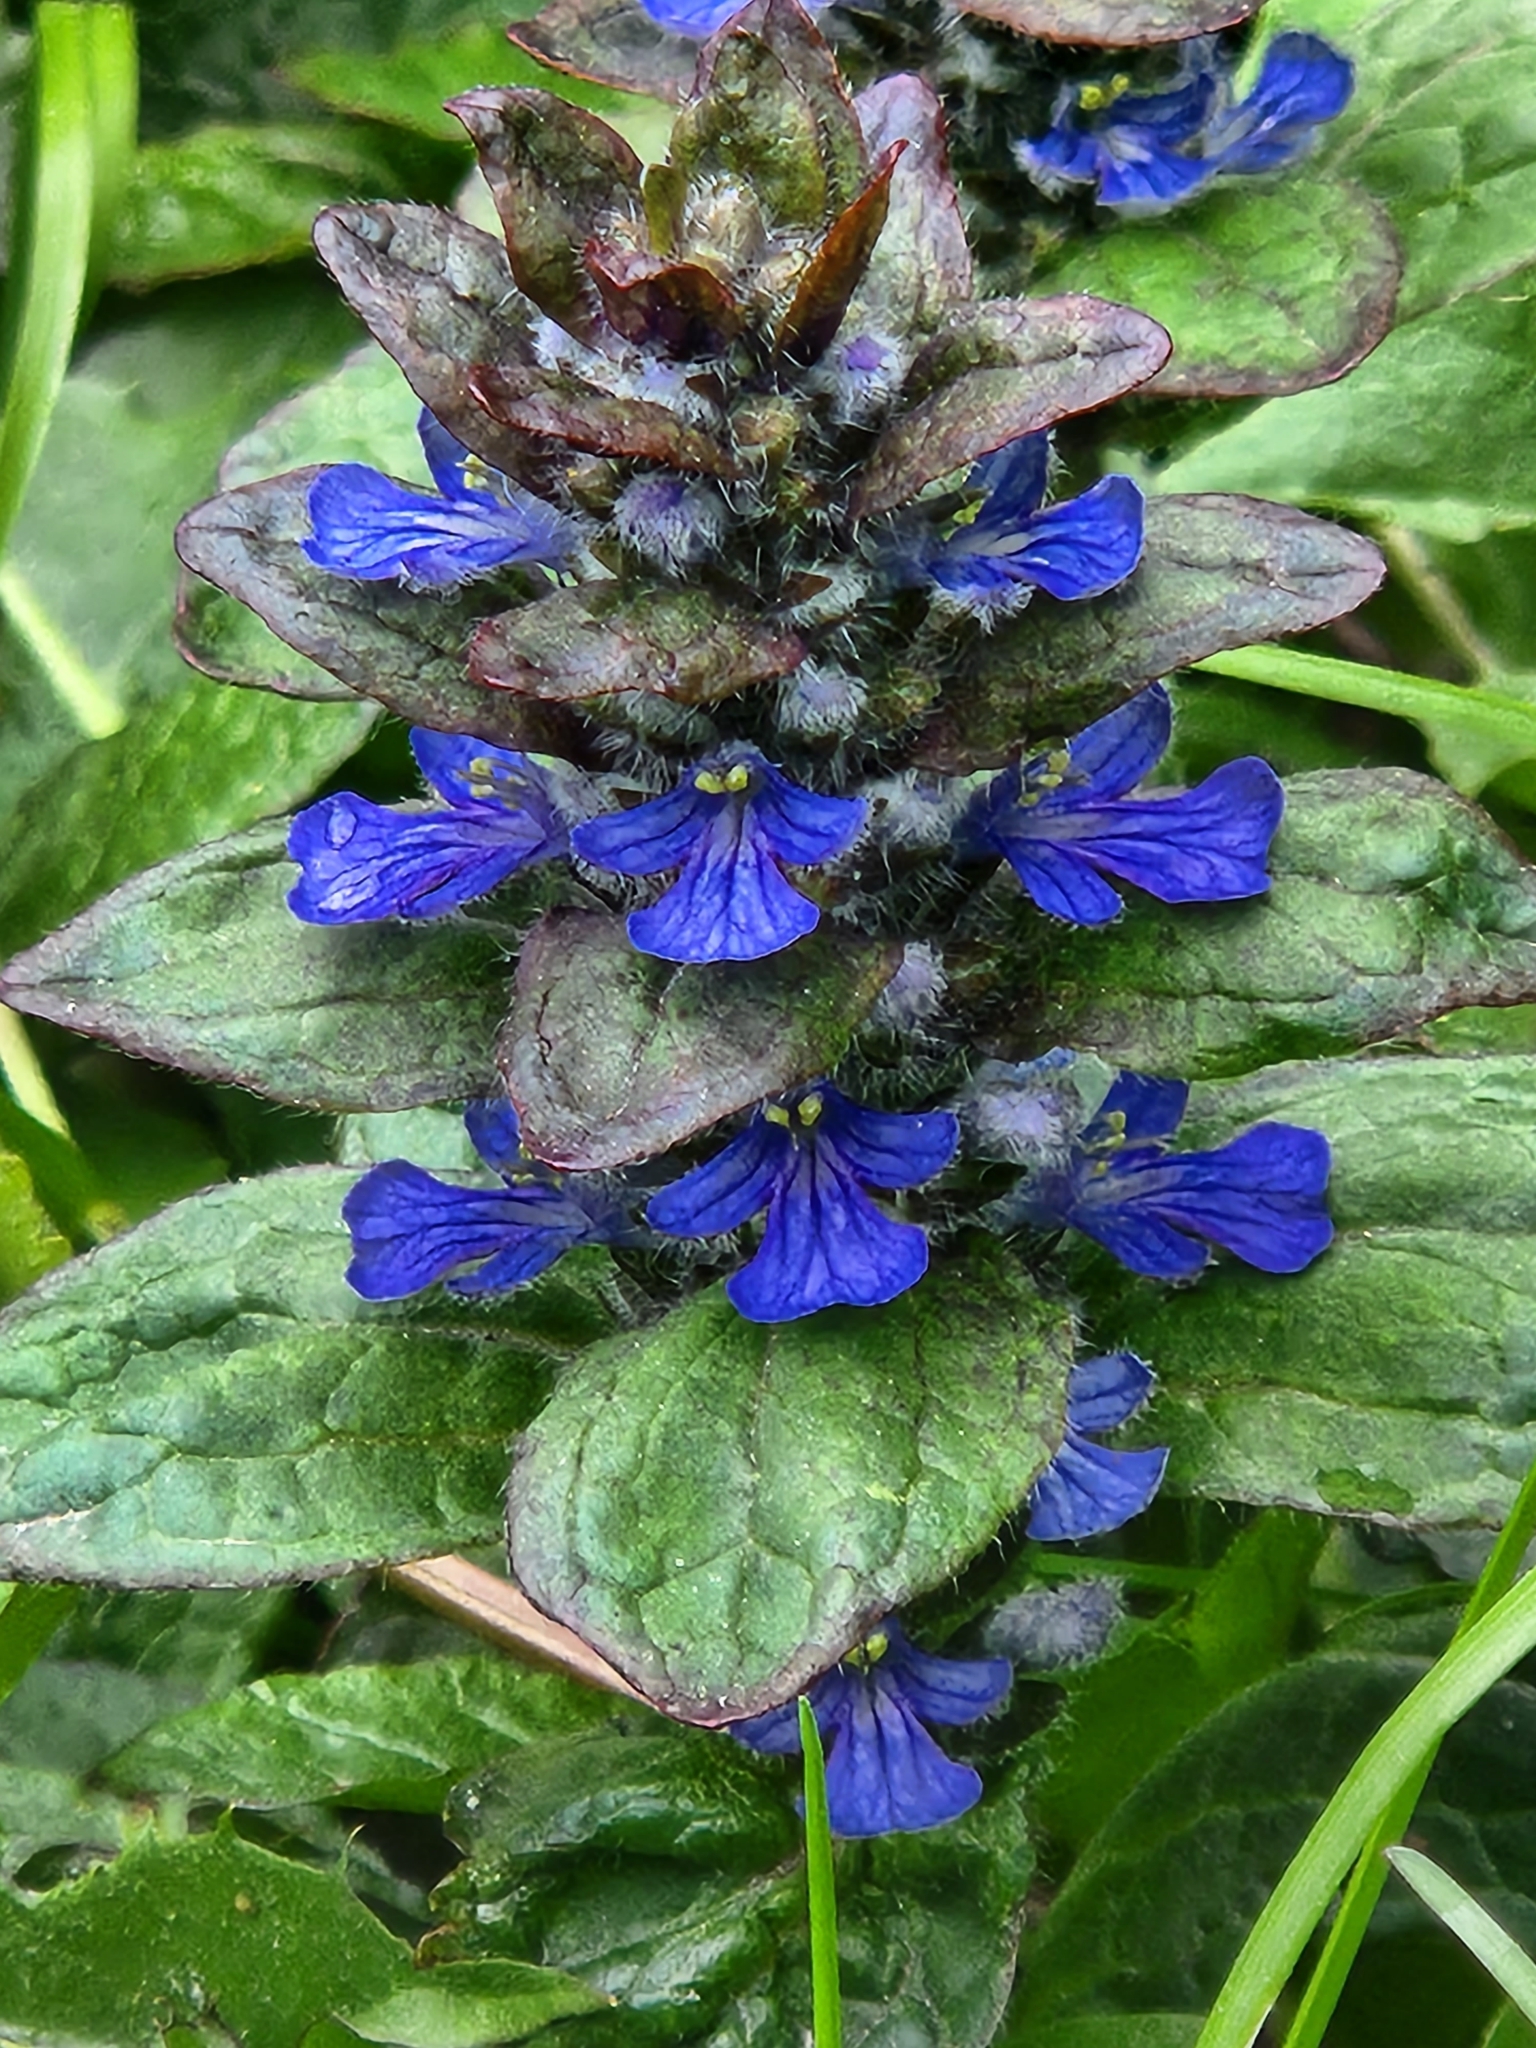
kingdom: Plantae
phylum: Tracheophyta
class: Magnoliopsida
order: Lamiales
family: Lamiaceae
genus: Ajuga
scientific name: Ajuga reptans
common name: Bugle
